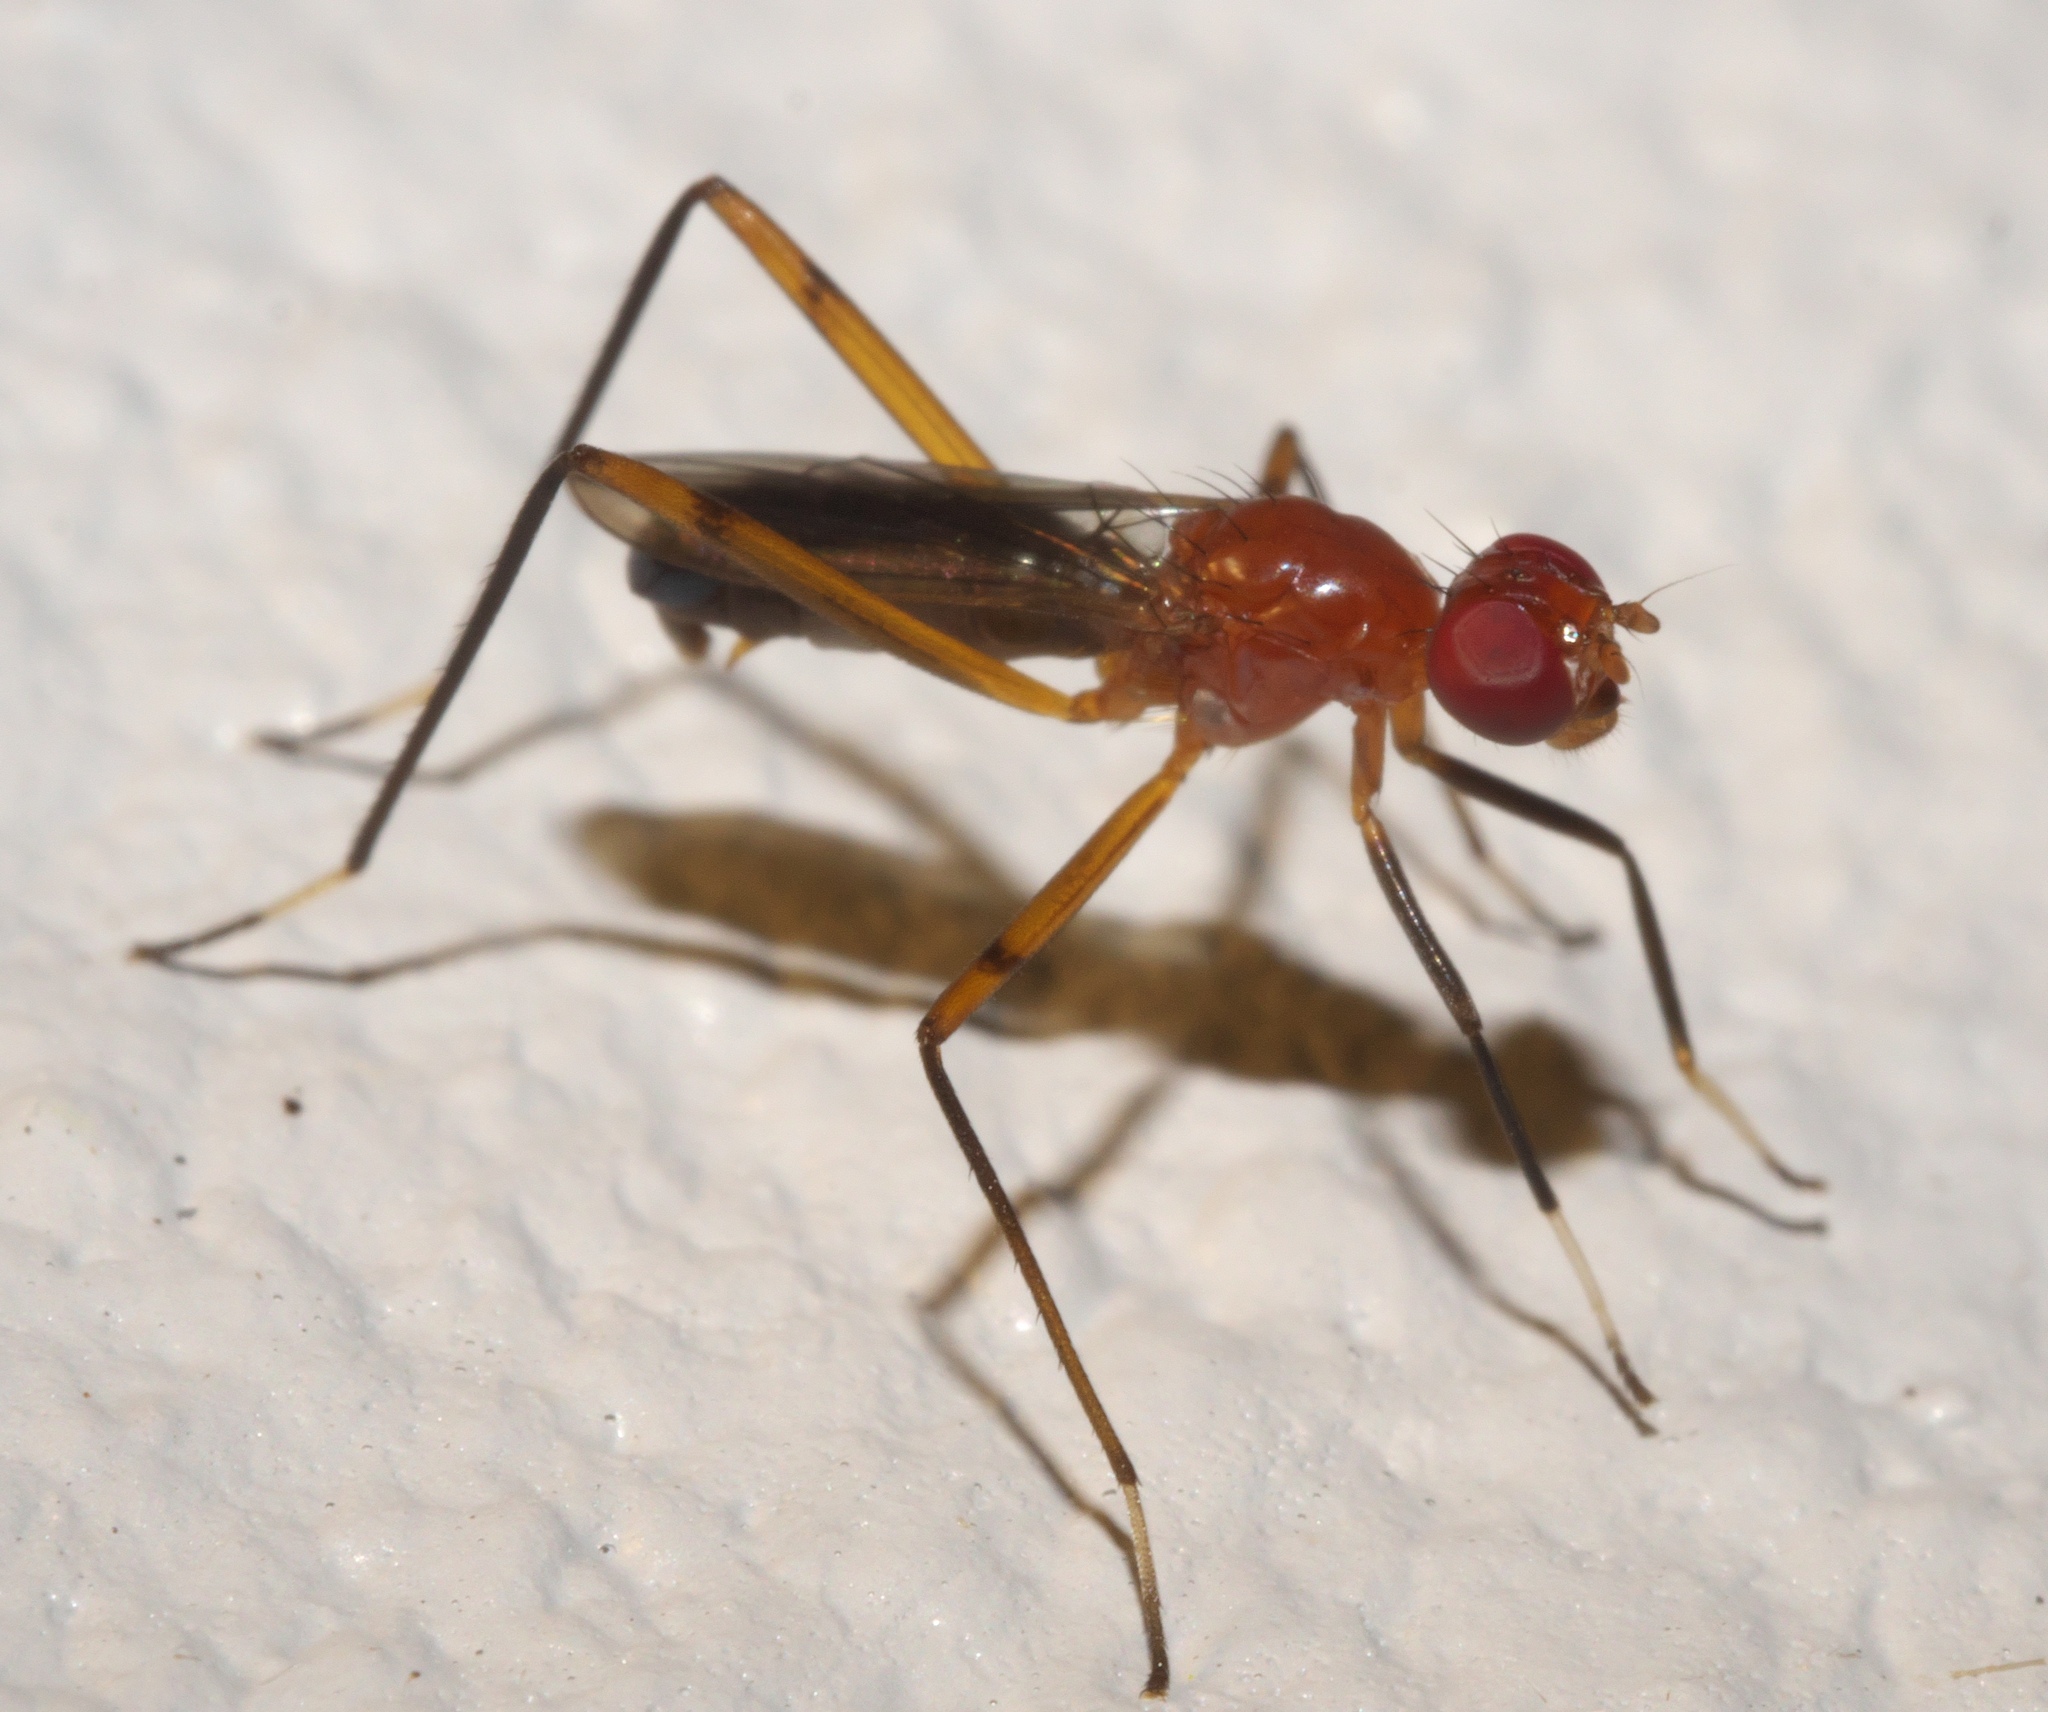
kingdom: Animalia
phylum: Arthropoda
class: Insecta
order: Diptera
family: Micropezidae
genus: Grallipeza
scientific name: Grallipeza nebulosa
